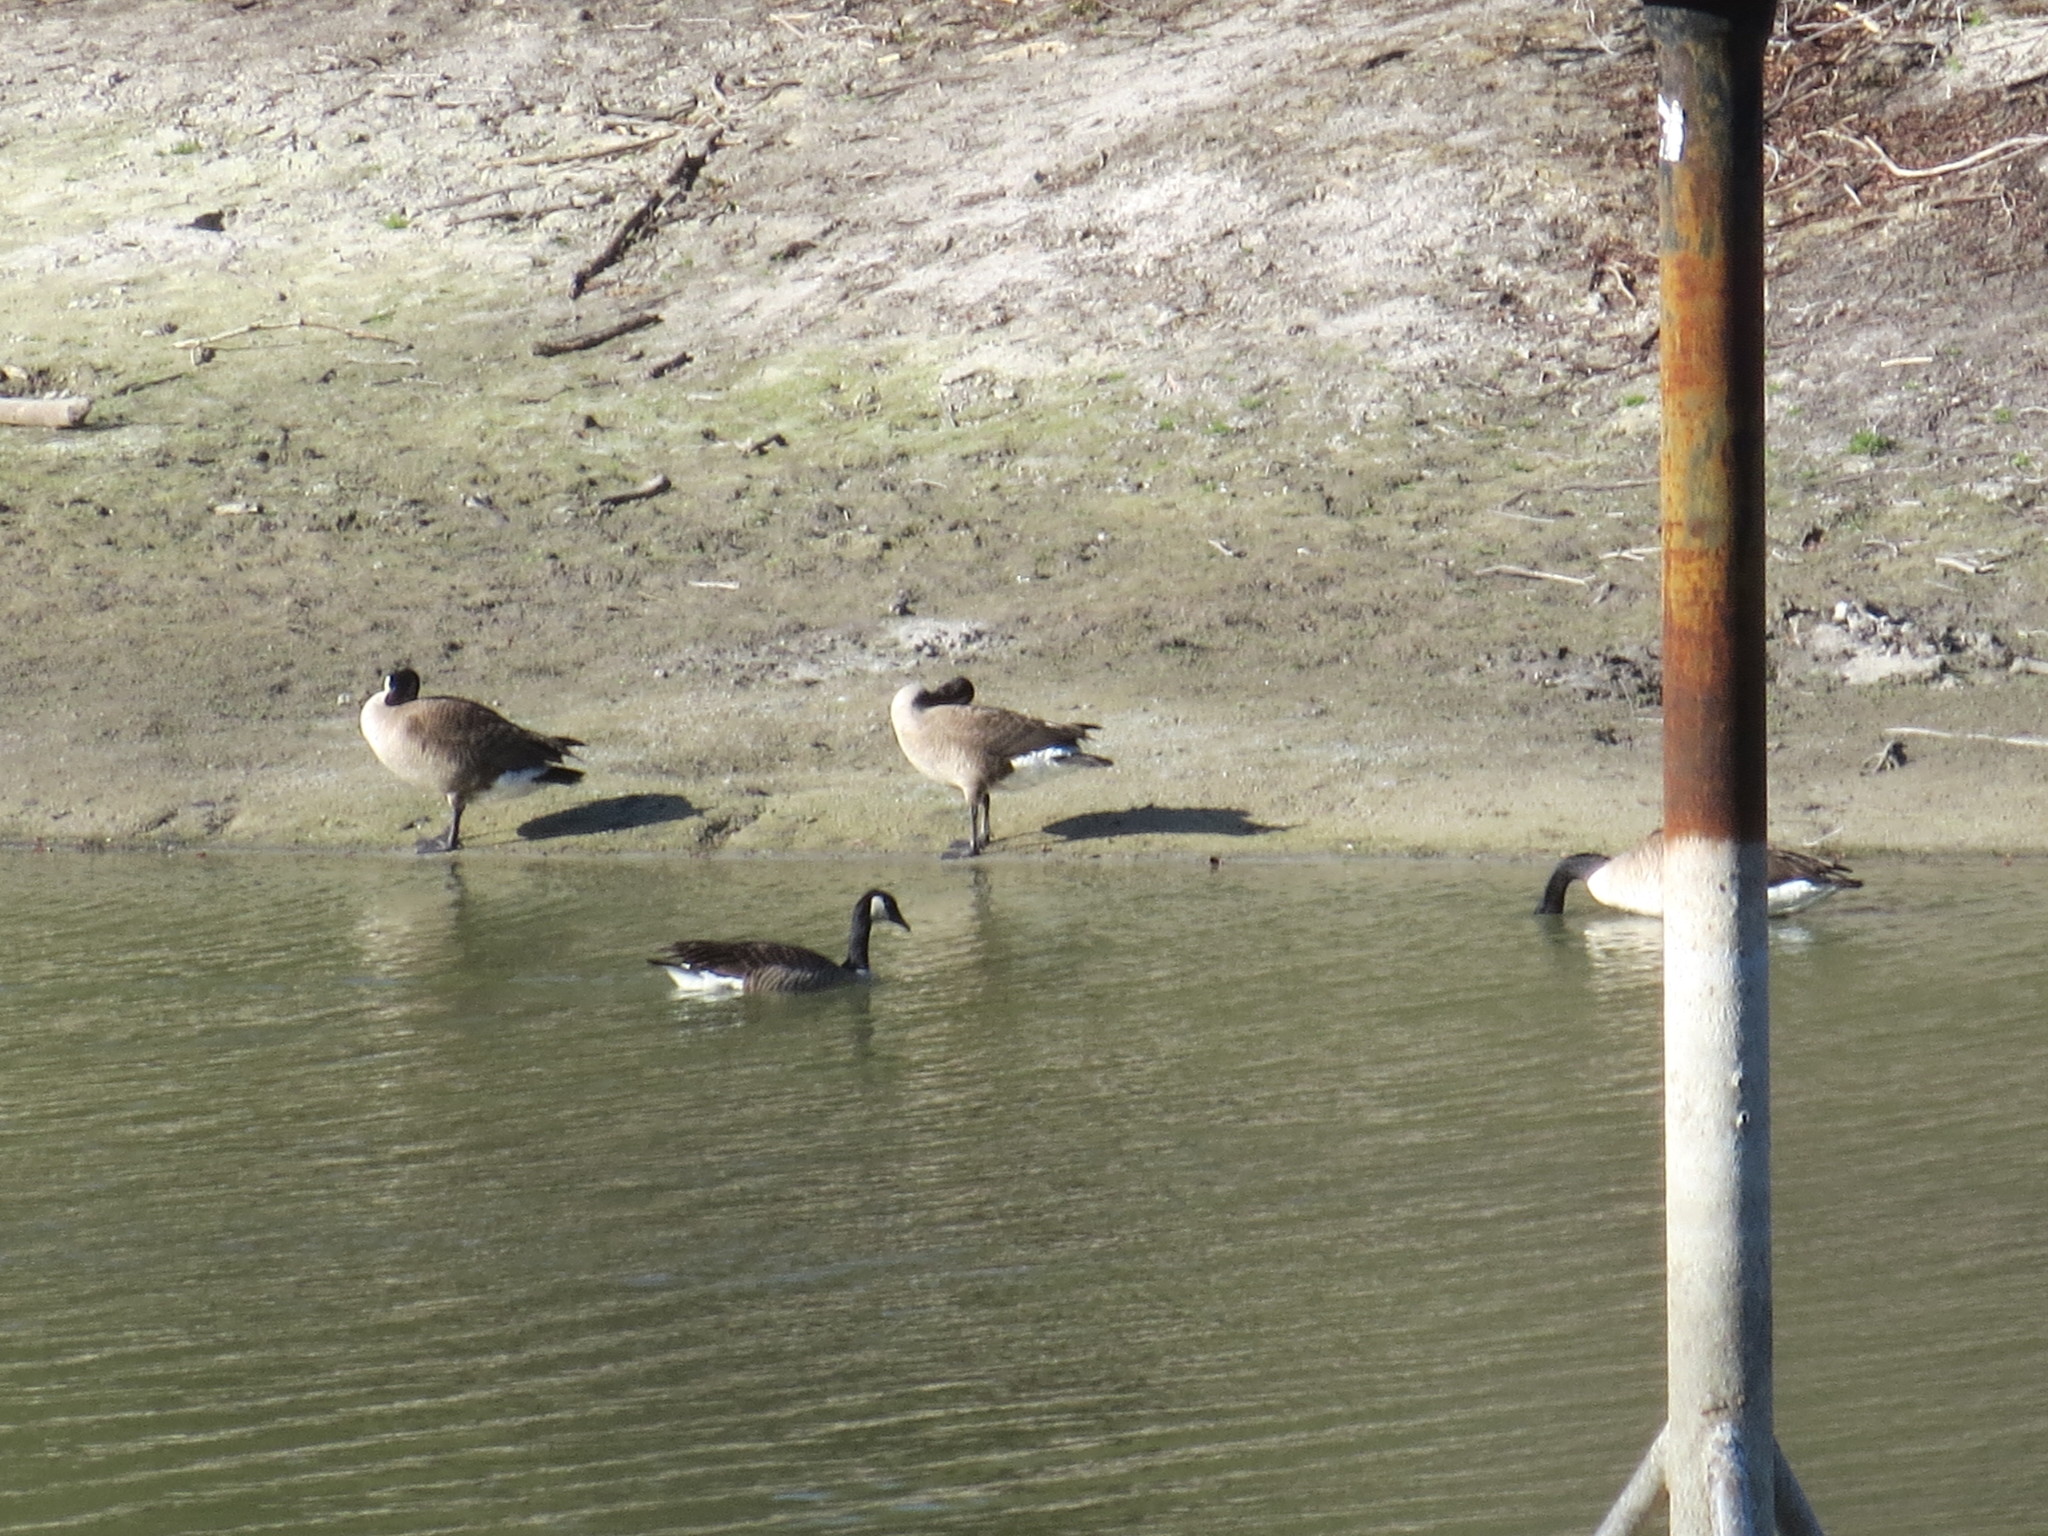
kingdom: Animalia
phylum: Chordata
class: Aves
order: Anseriformes
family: Anatidae
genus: Branta
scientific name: Branta canadensis
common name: Canada goose
